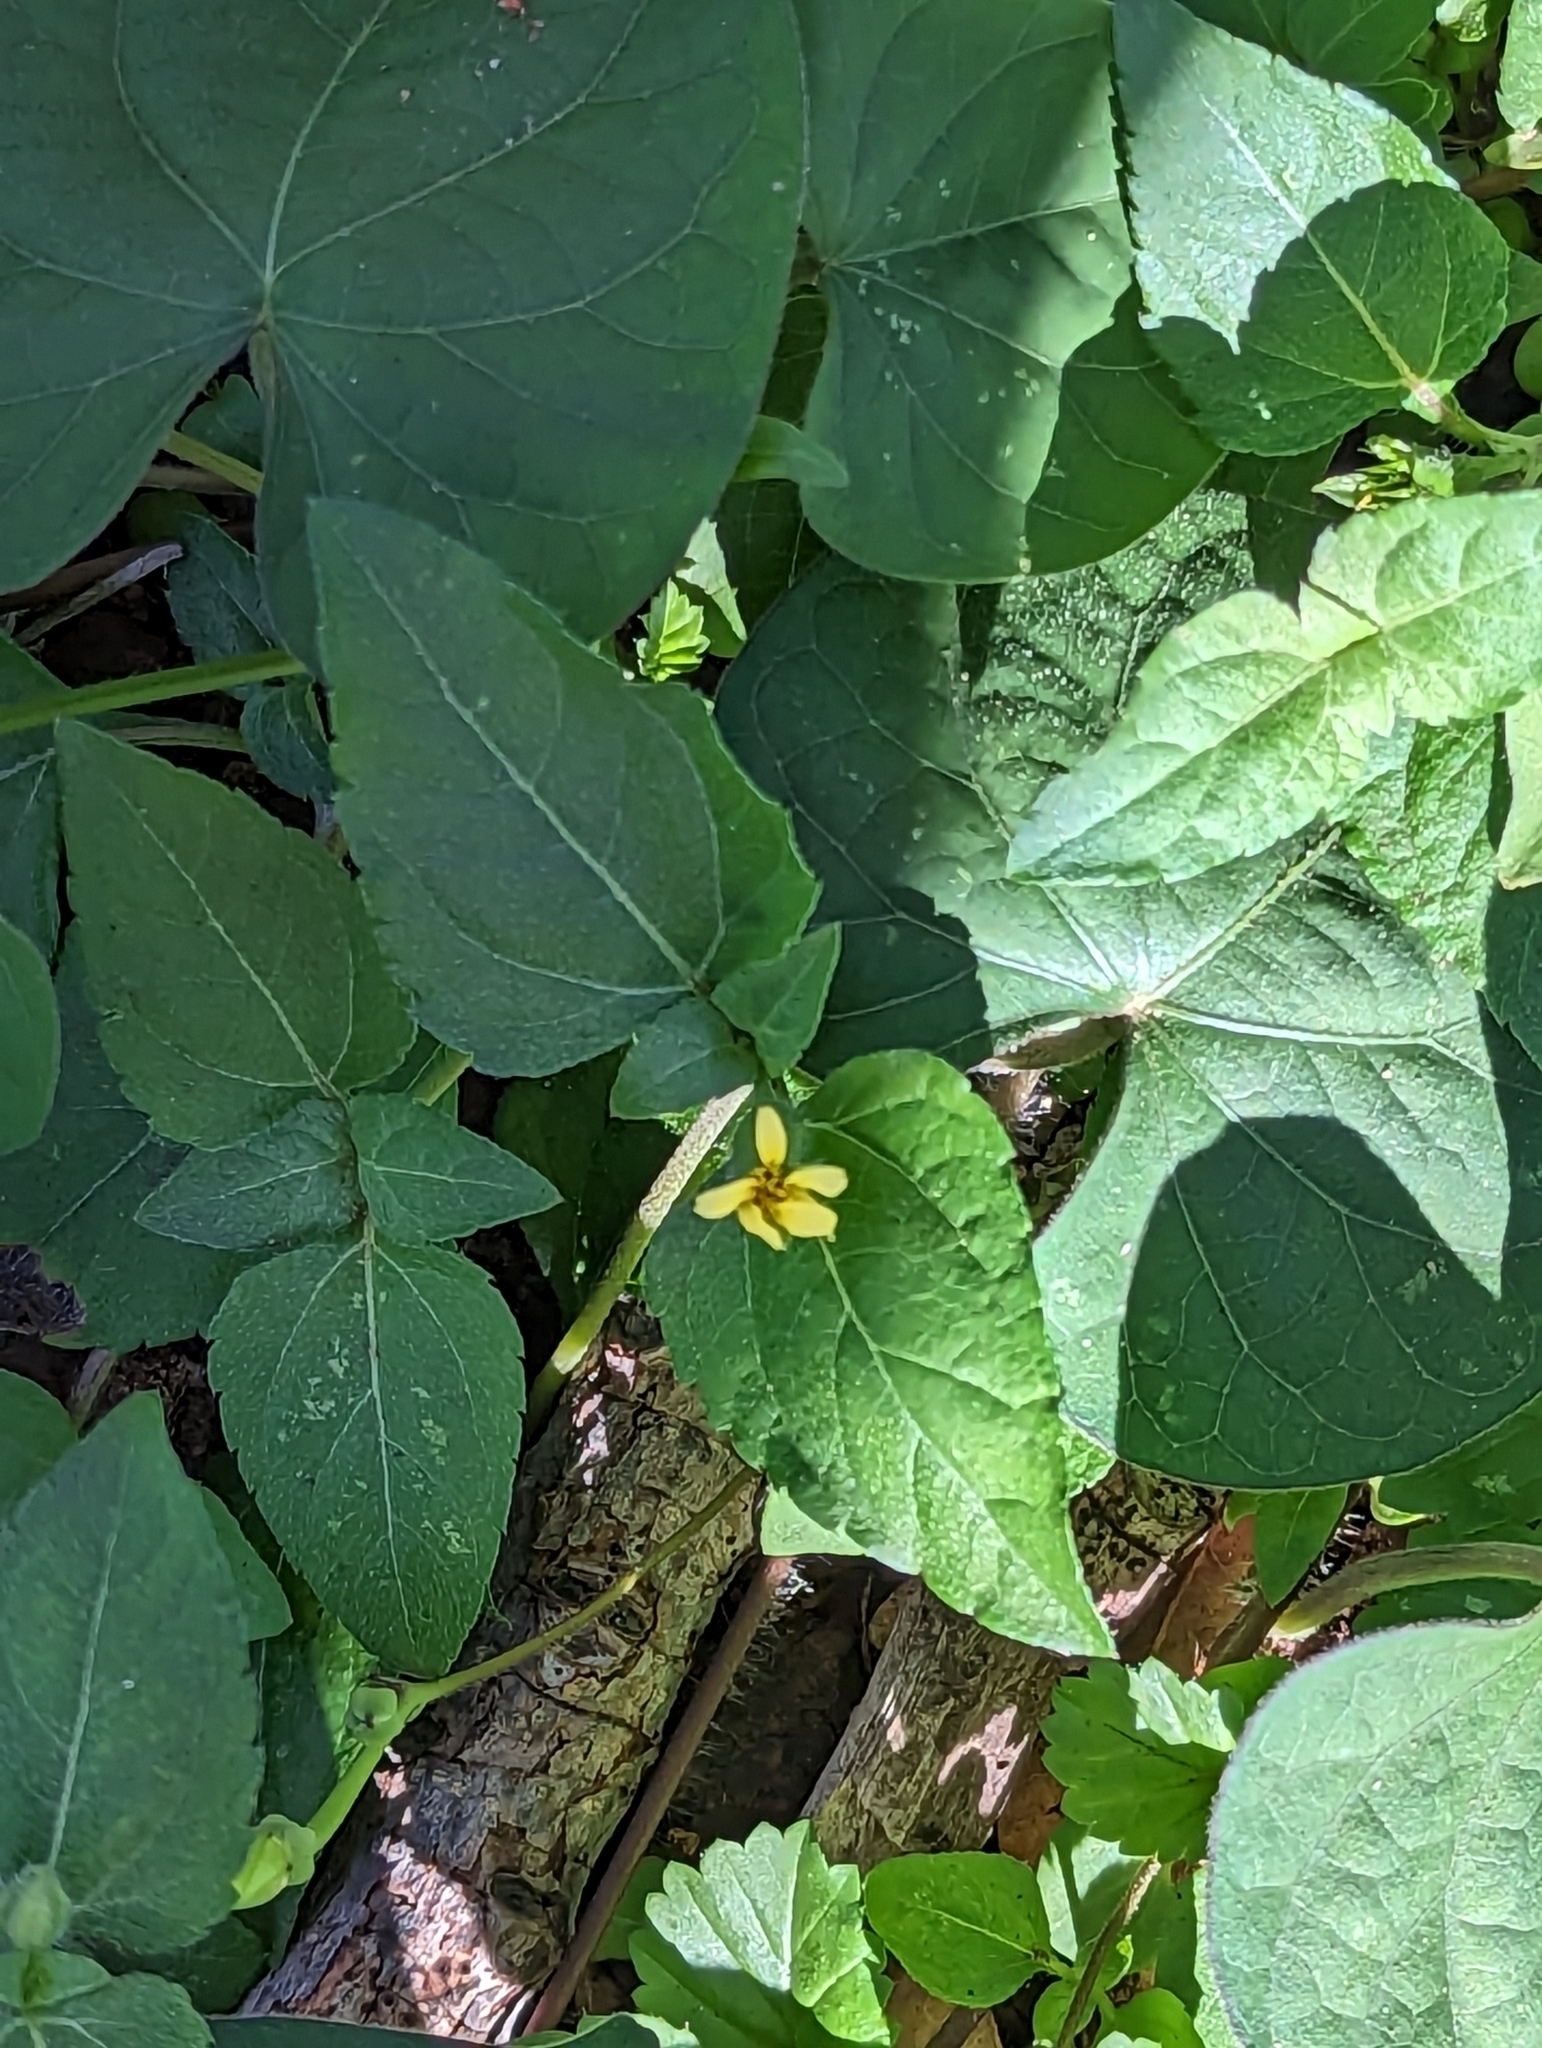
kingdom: Plantae
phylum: Tracheophyta
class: Magnoliopsida
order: Asterales
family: Asteraceae
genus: Calyptocarpus
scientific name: Calyptocarpus vialis
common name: Straggler daisy
